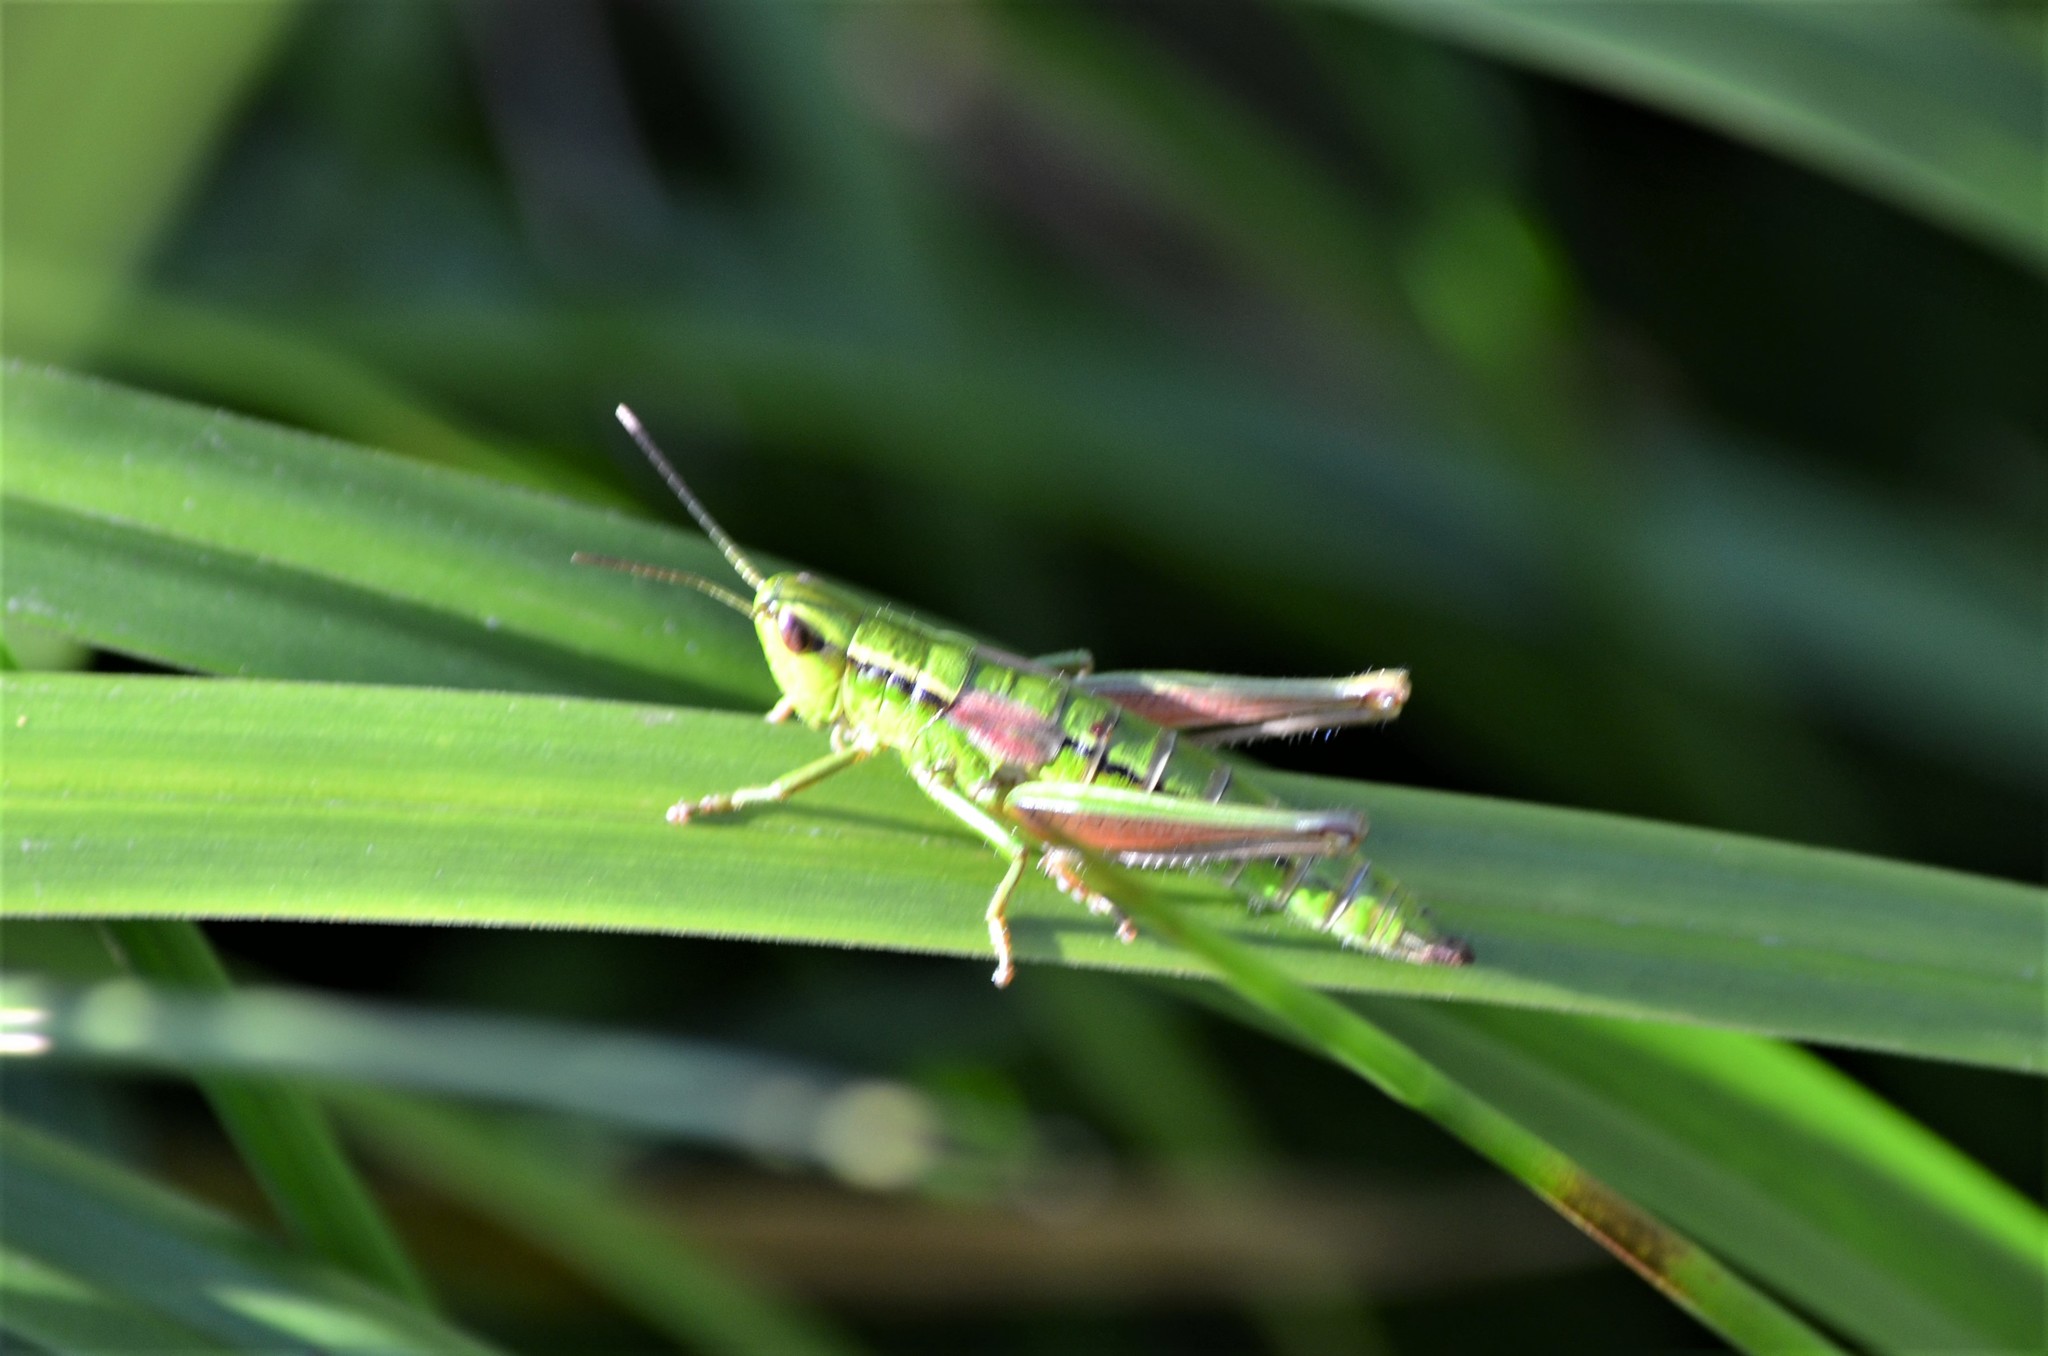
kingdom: Animalia
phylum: Arthropoda
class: Insecta
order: Orthoptera
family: Acrididae
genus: Euthystira
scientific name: Euthystira brachyptera
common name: Small gold grasshopper
